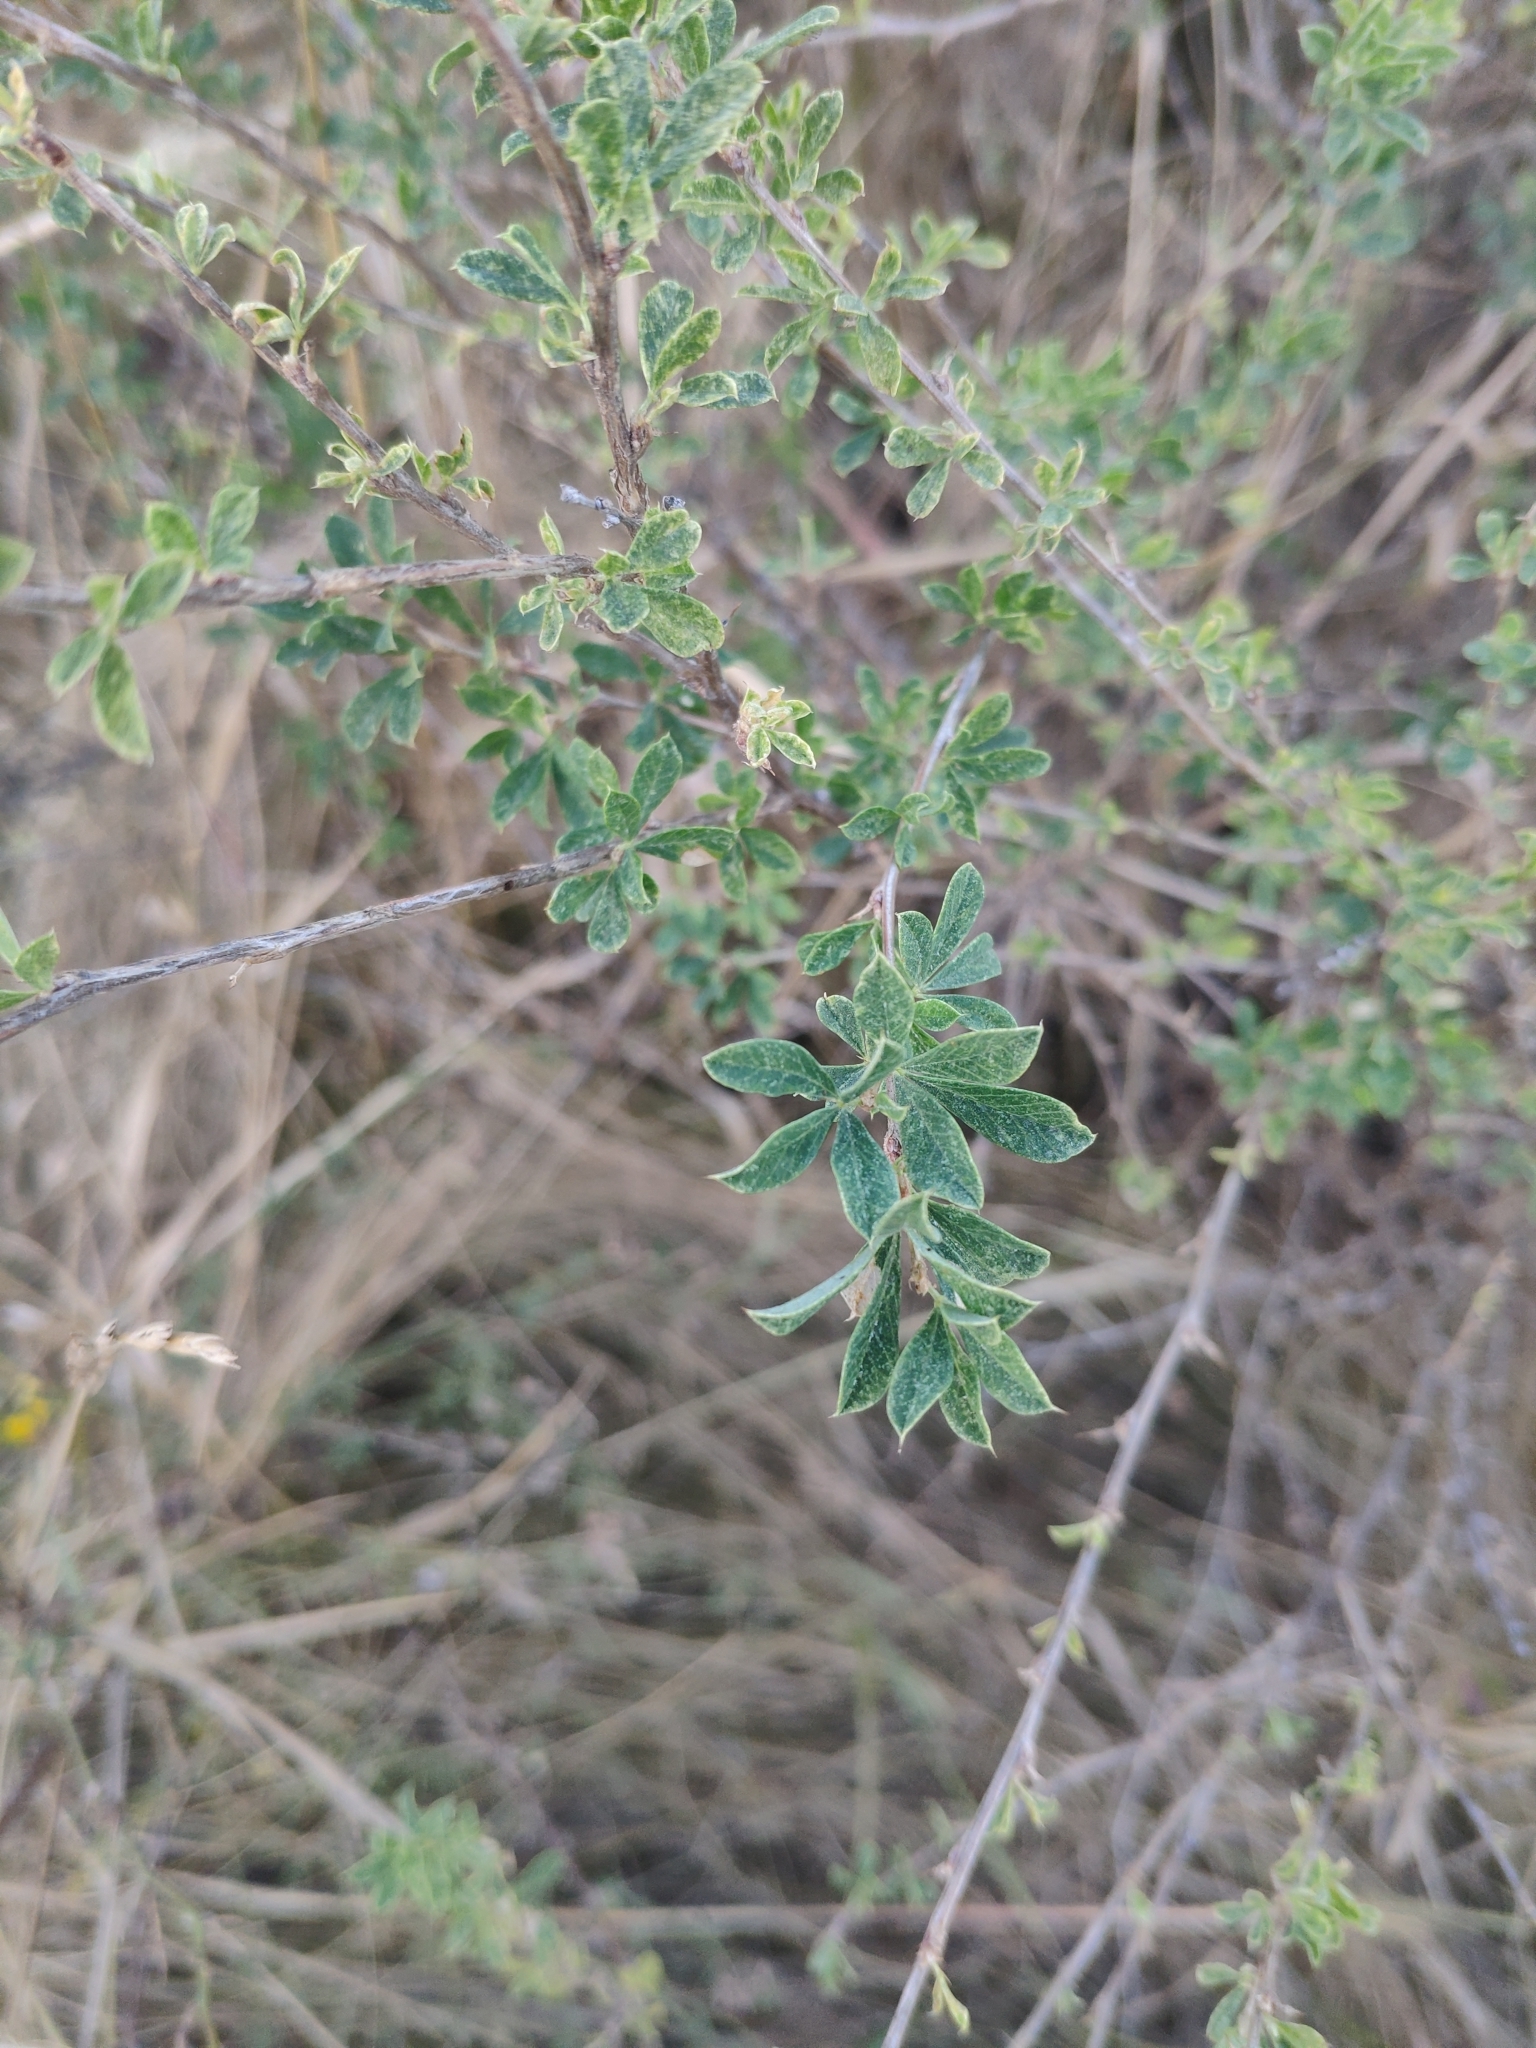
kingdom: Plantae
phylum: Tracheophyta
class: Magnoliopsida
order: Fabales
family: Fabaceae
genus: Caragana
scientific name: Caragana frutex
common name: Russian peashrub
